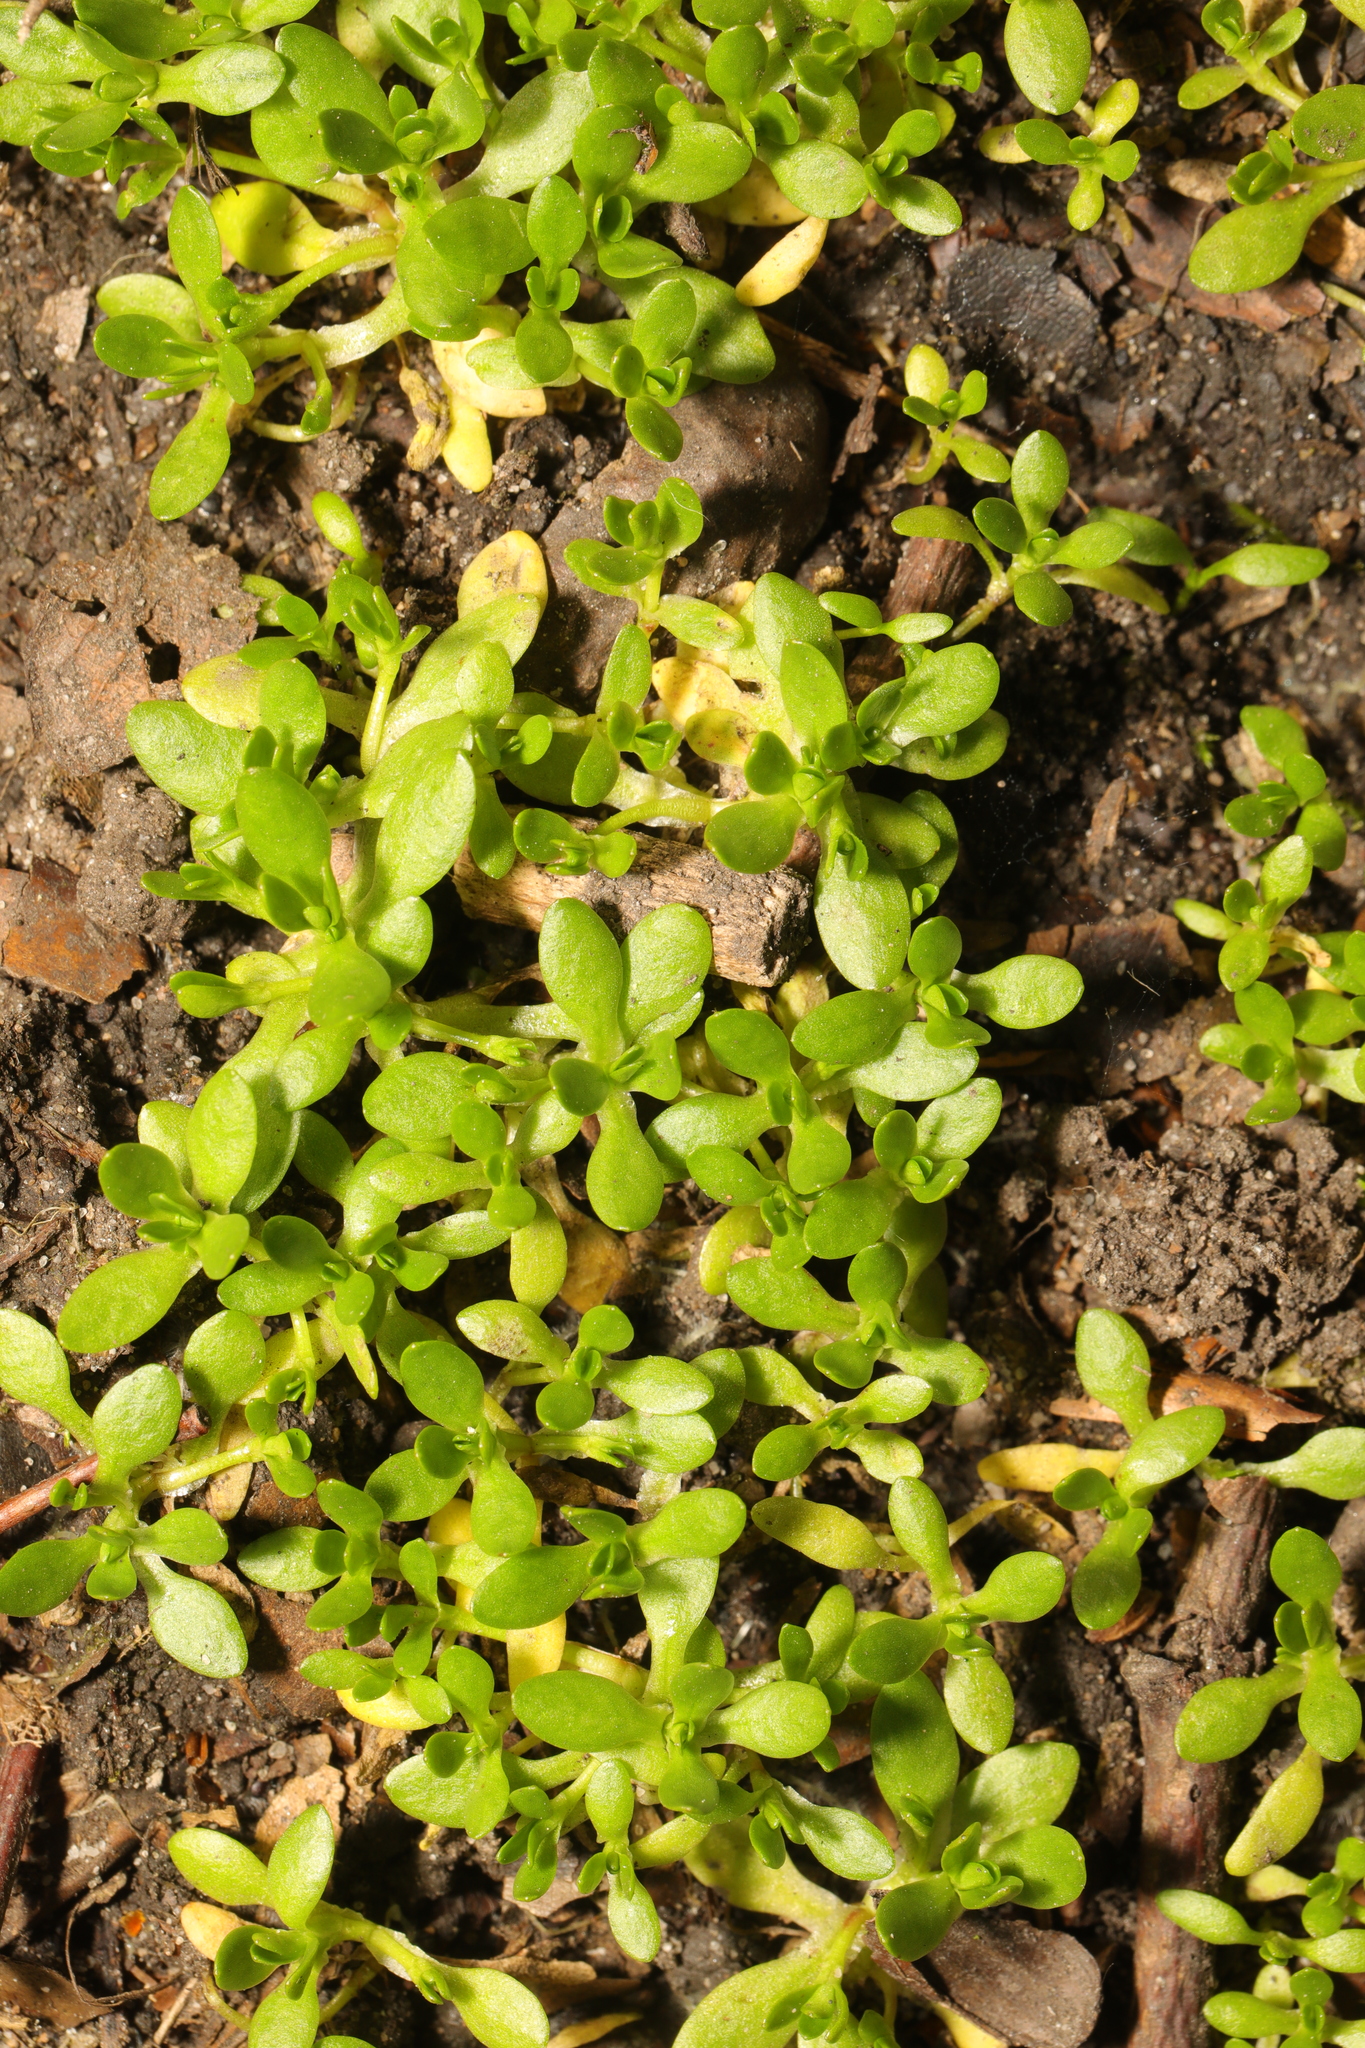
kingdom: Plantae
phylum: Tracheophyta
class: Magnoliopsida
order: Caryophyllales
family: Montiaceae
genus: Montia
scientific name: Montia fontana
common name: Blinks
